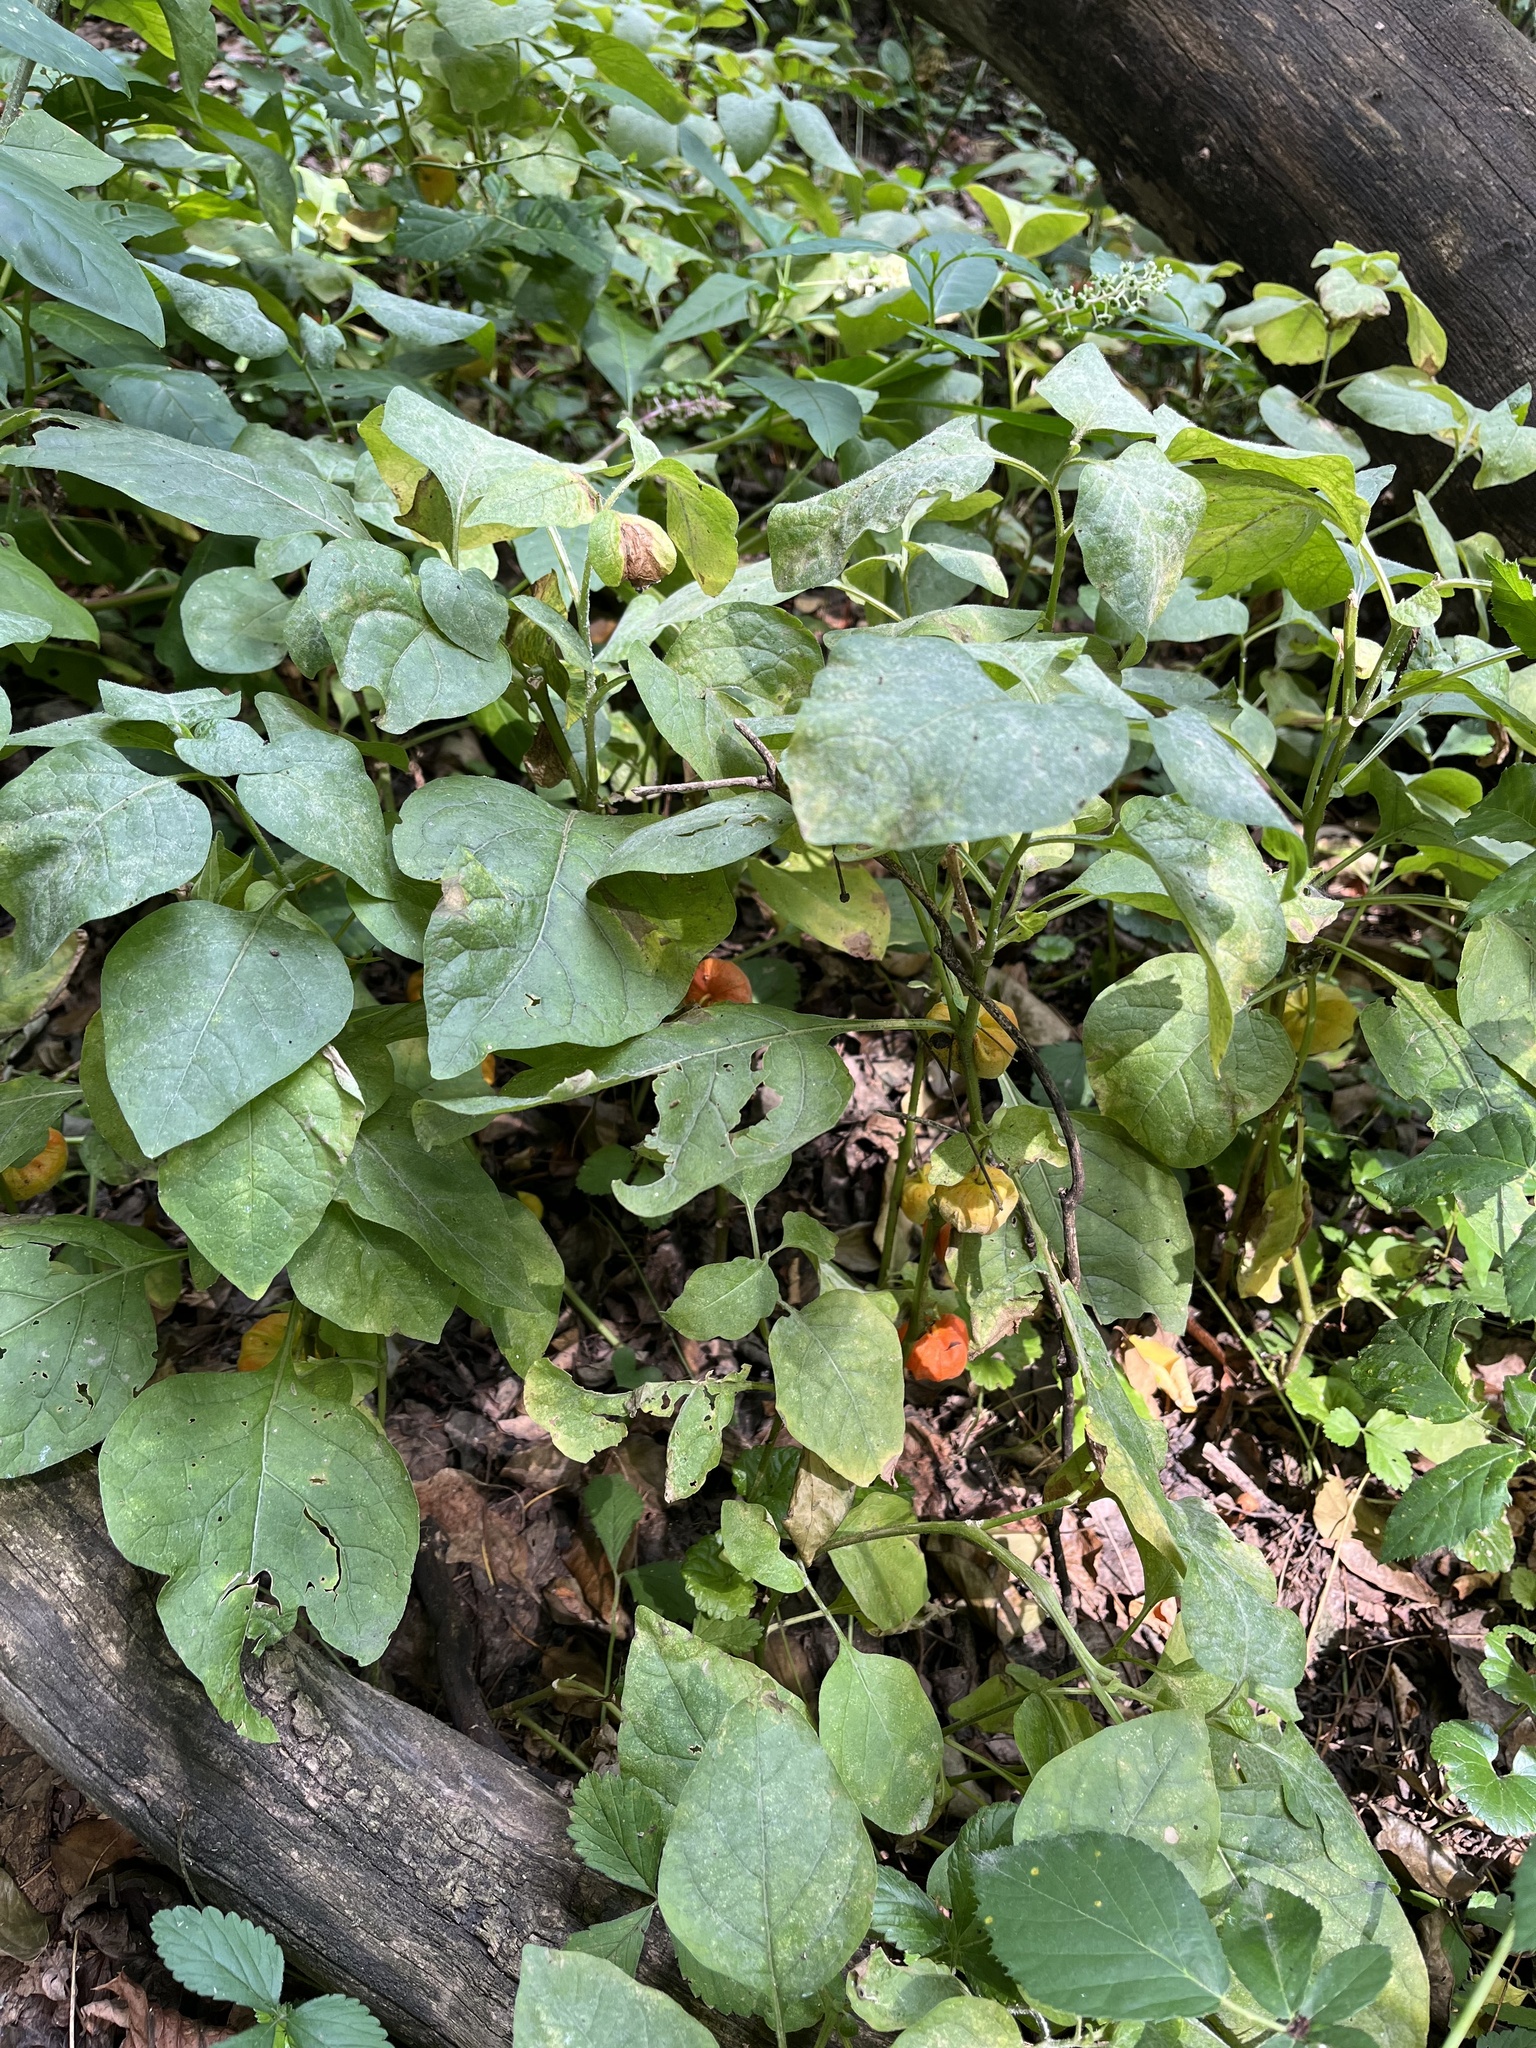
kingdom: Plantae
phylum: Tracheophyta
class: Magnoliopsida
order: Solanales
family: Solanaceae
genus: Alkekengi
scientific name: Alkekengi officinarum
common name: Japanese-lantern
